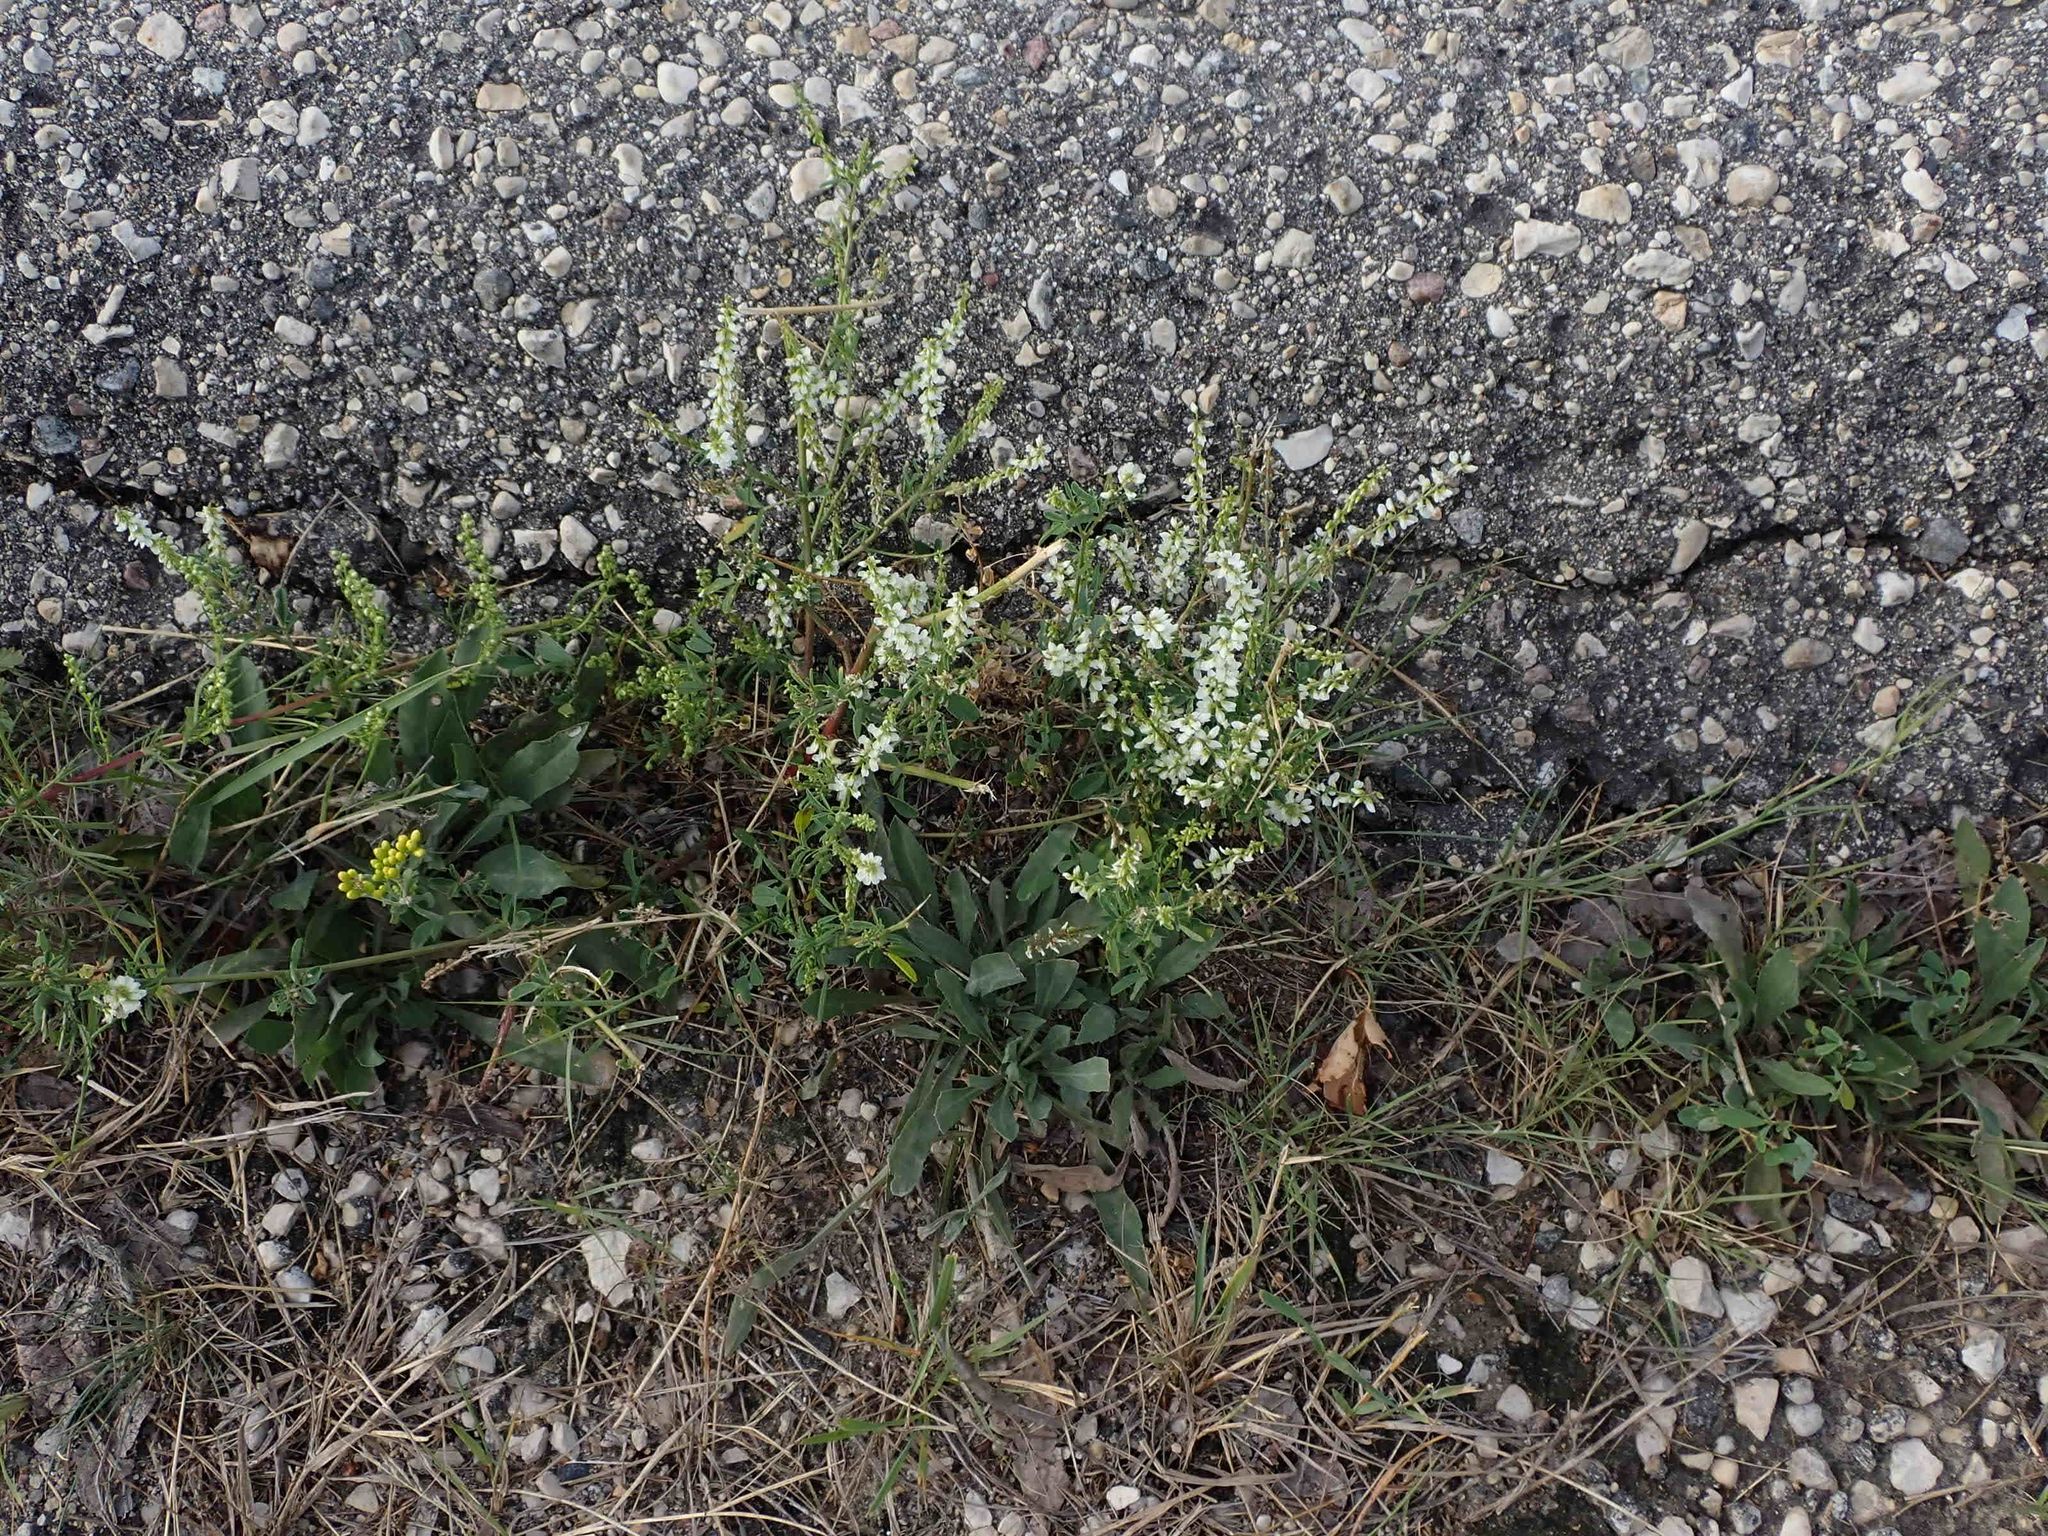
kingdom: Plantae
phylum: Tracheophyta
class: Magnoliopsida
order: Fabales
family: Fabaceae
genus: Melilotus
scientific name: Melilotus albus
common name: White melilot
